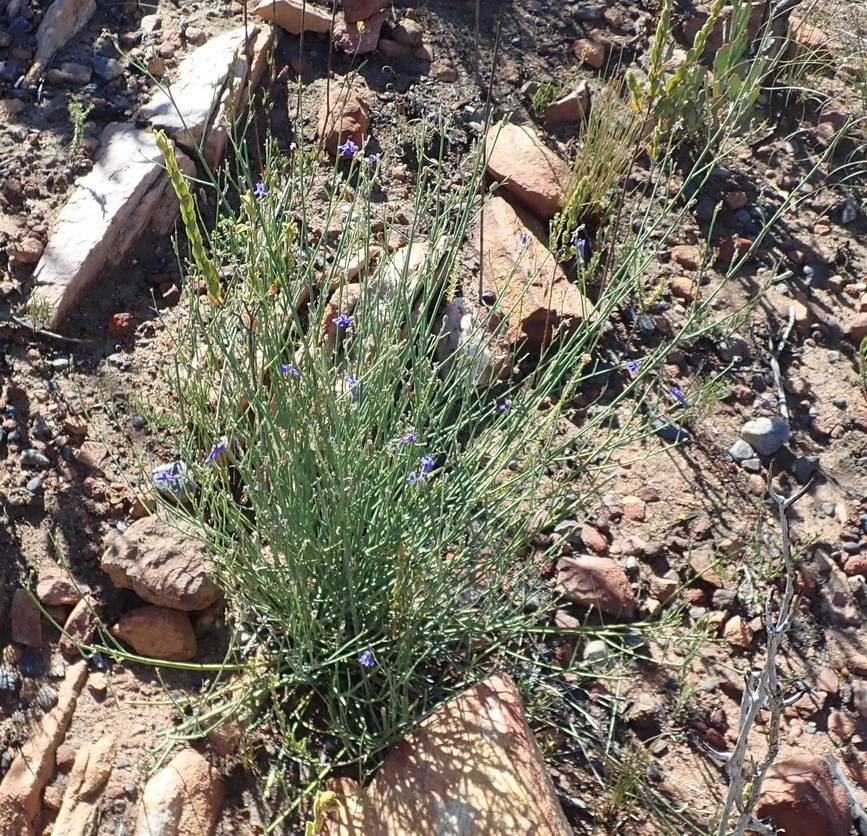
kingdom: Plantae
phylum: Tracheophyta
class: Magnoliopsida
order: Asterales
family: Campanulaceae
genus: Lobelia
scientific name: Lobelia linearis
